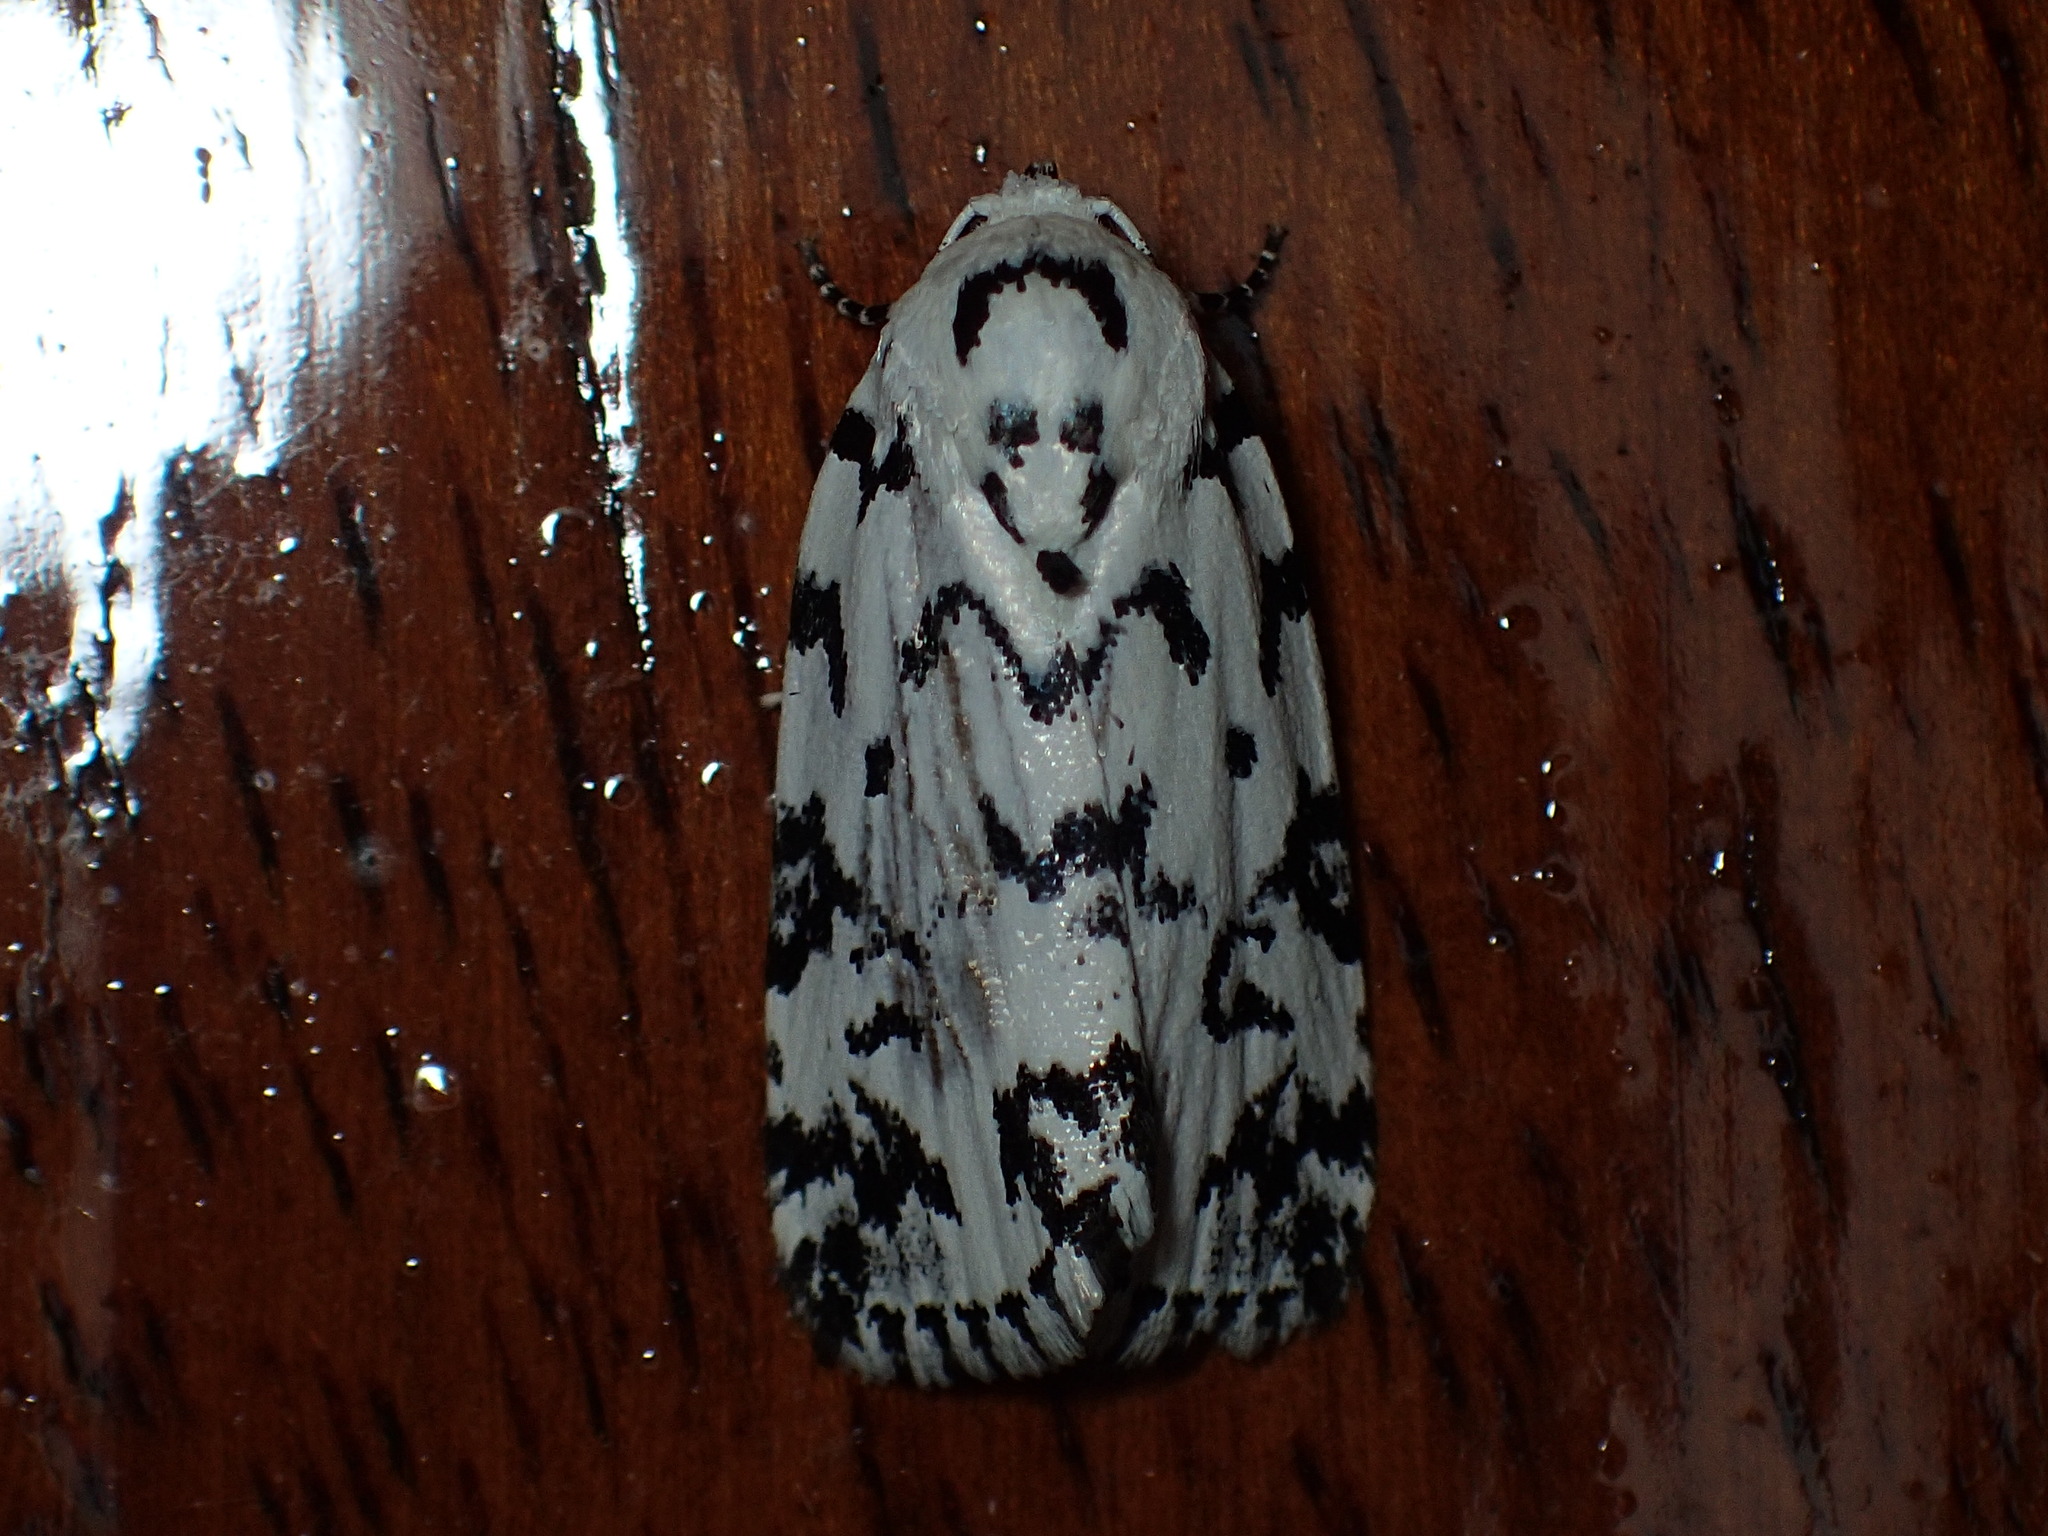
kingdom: Animalia
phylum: Arthropoda
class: Insecta
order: Lepidoptera
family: Noctuidae
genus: Polygrammate
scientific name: Polygrammate hebraeicum
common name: Hebrew moth
